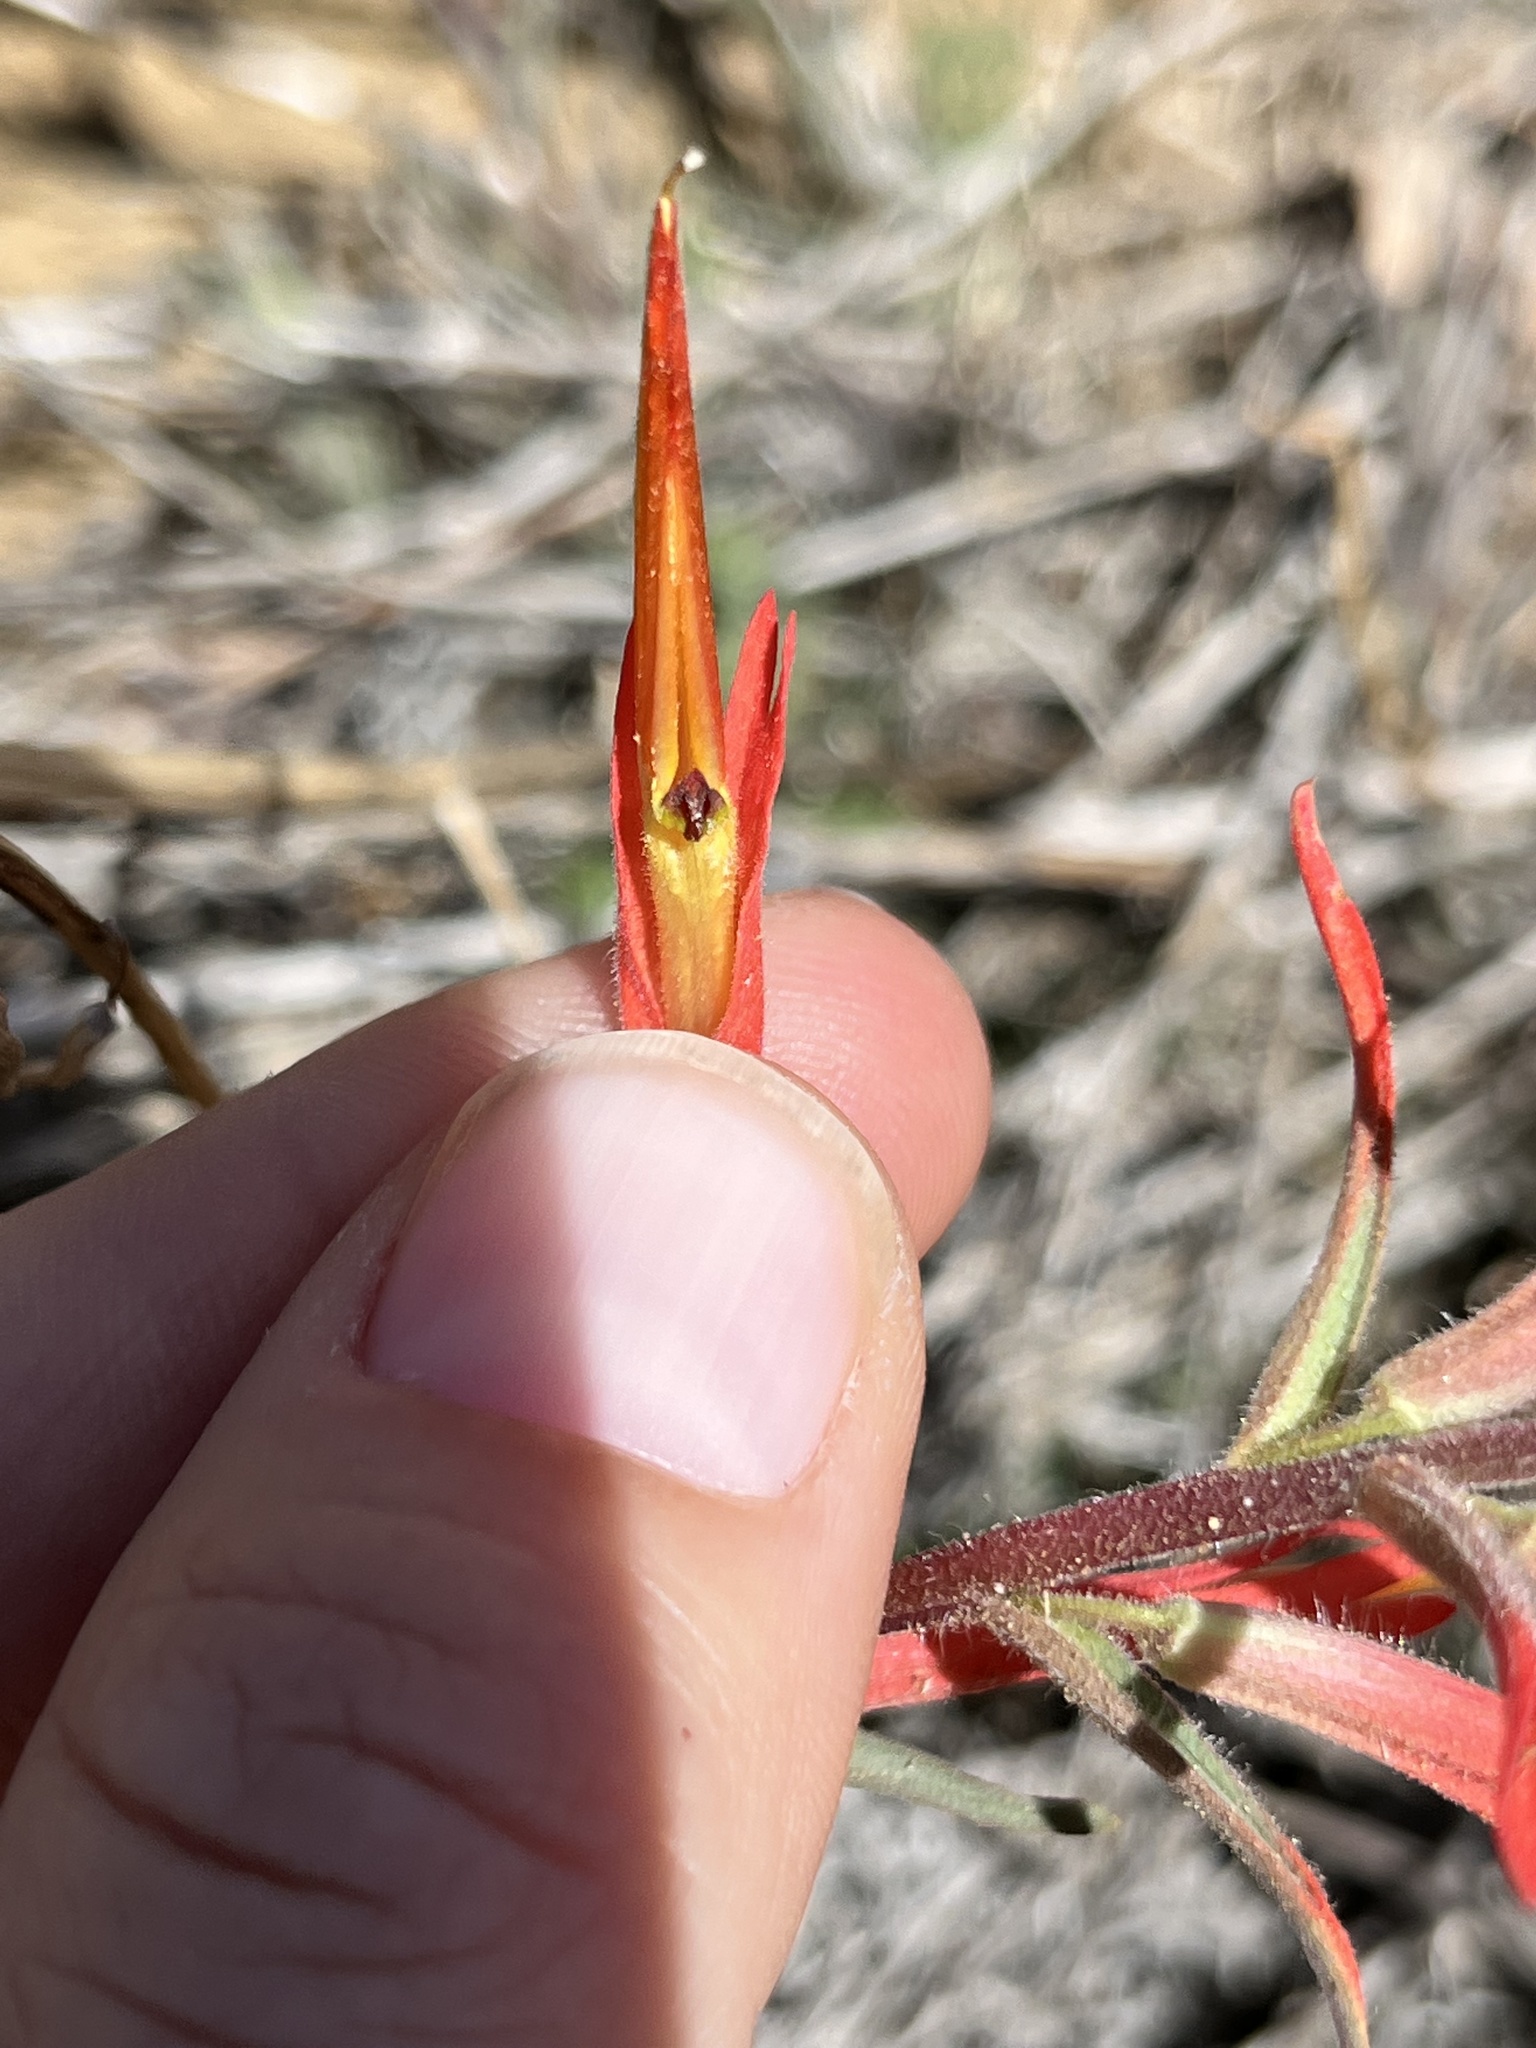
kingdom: Plantae
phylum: Tracheophyta
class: Magnoliopsida
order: Lamiales
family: Orobanchaceae
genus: Castilleja
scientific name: Castilleja subinclusa
